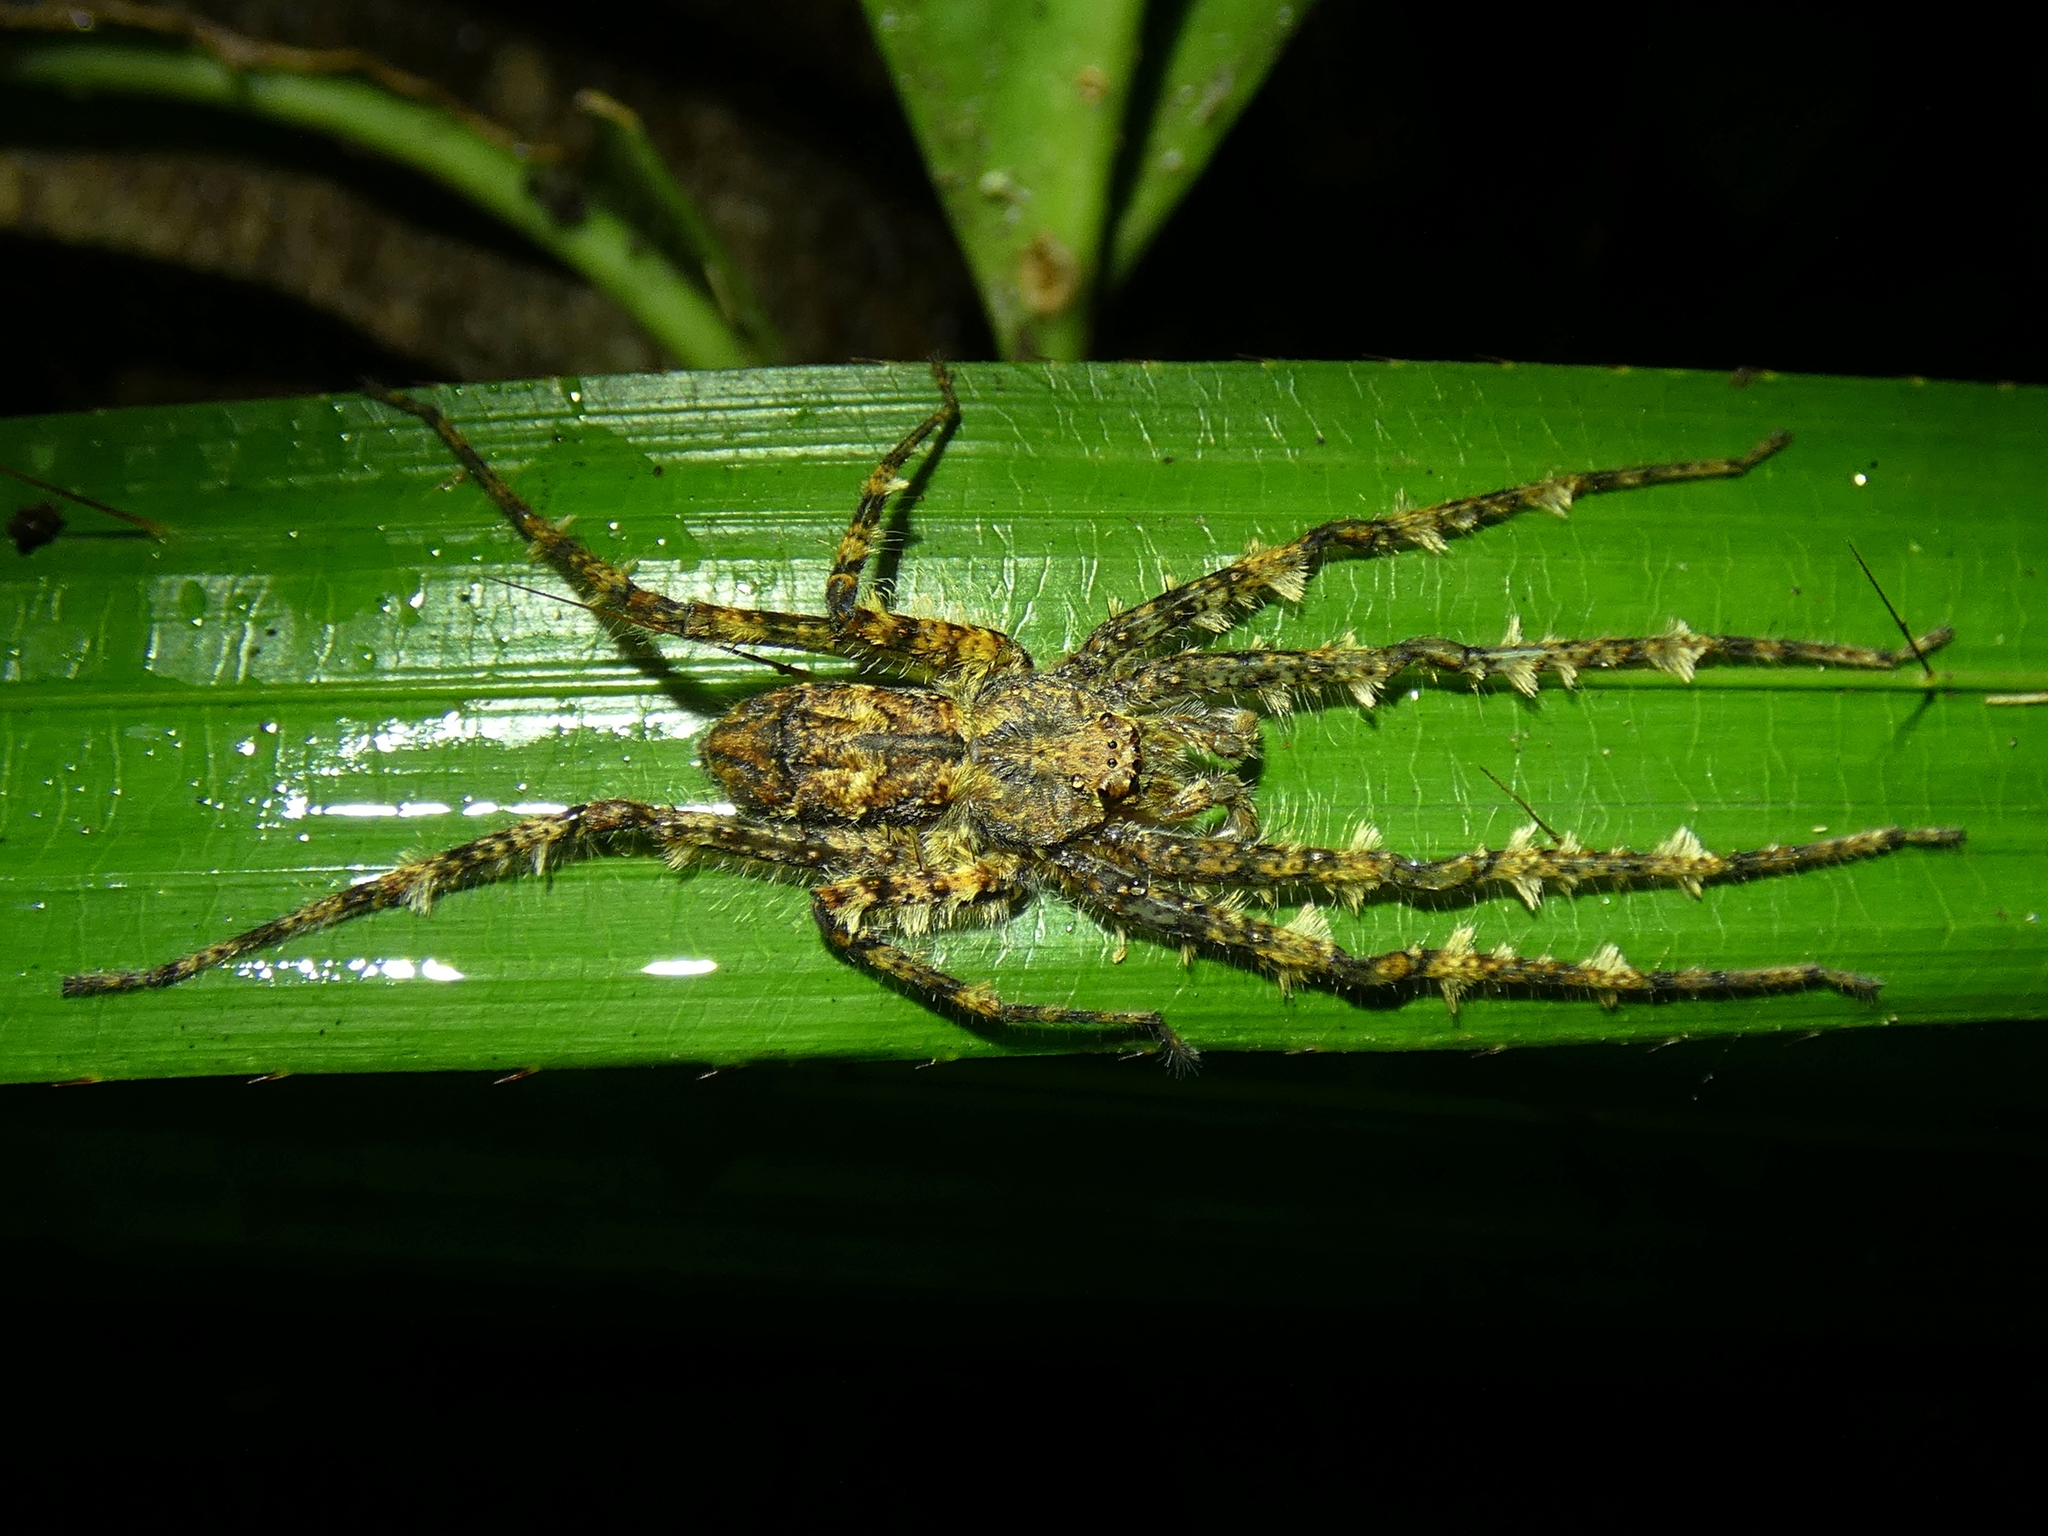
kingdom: Animalia
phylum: Arthropoda
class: Arachnida
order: Araneae
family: Sparassidae
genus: Pandercetes
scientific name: Pandercetes gracilis
